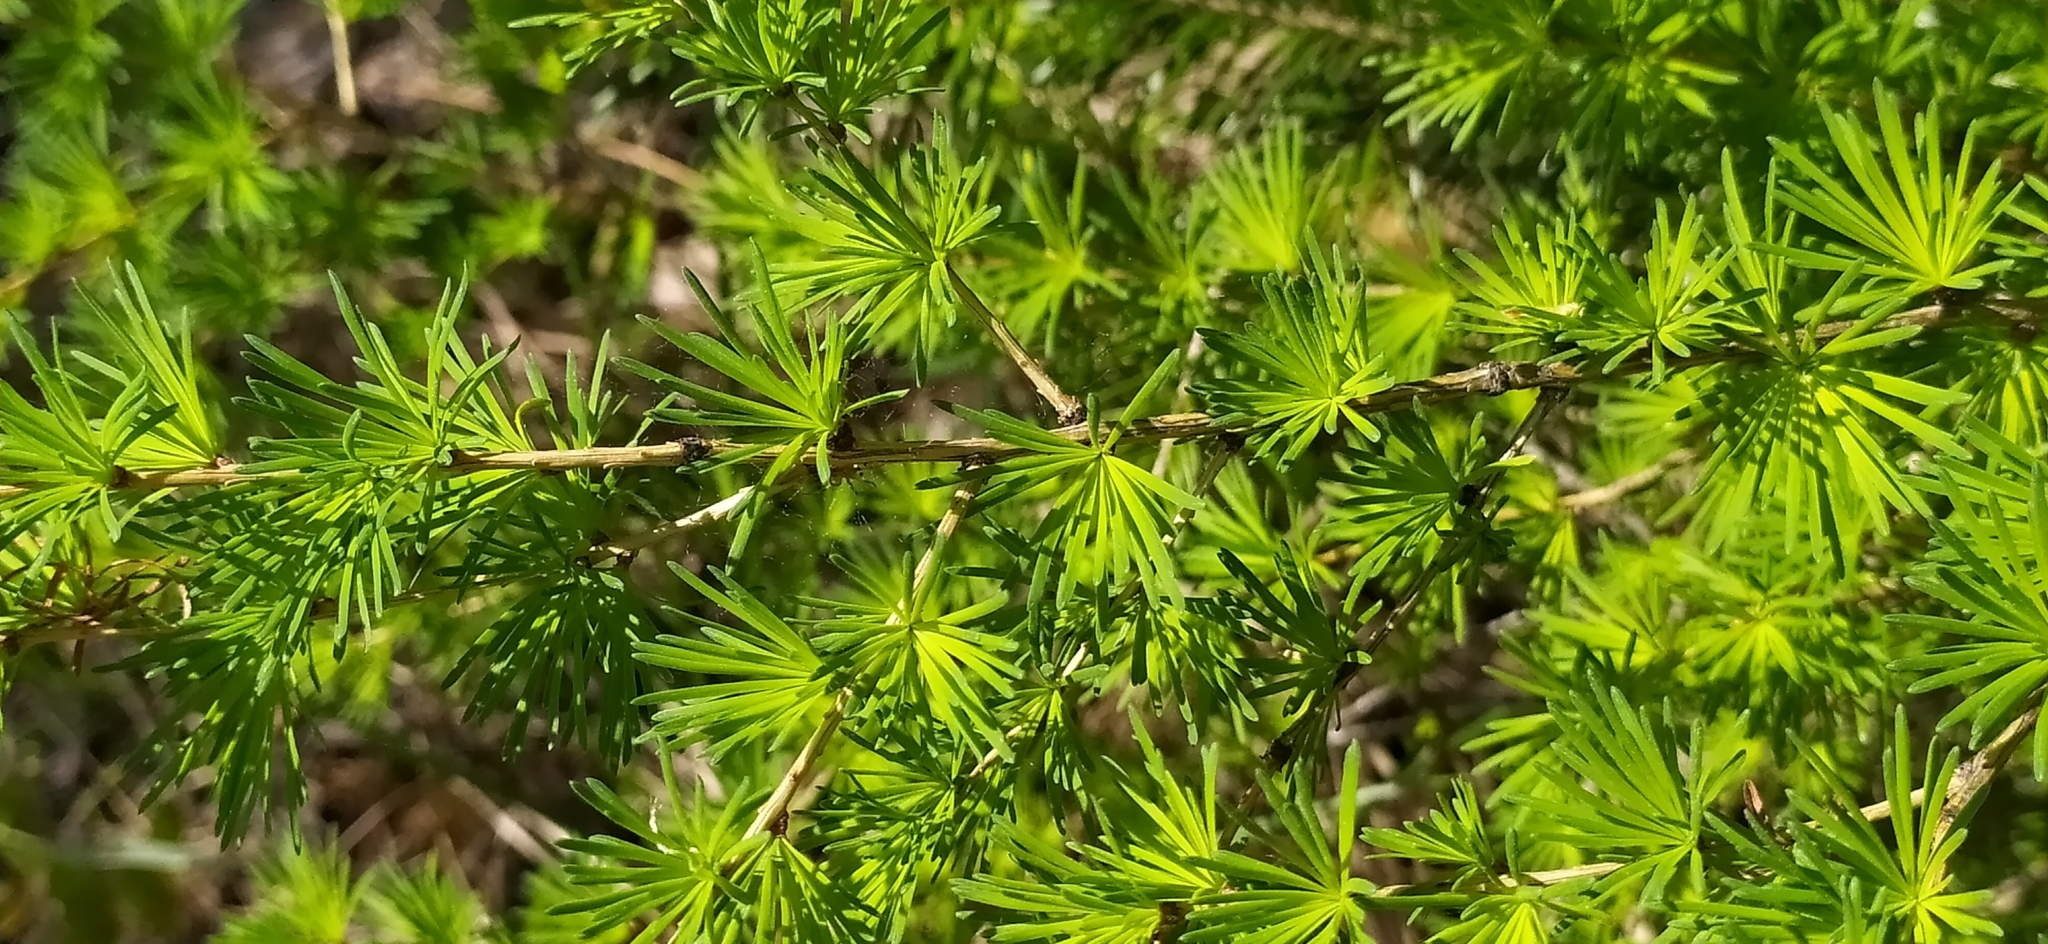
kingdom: Plantae
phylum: Tracheophyta
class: Pinopsida
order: Pinales
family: Pinaceae
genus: Larix
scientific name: Larix sibirica
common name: Siberian larch
